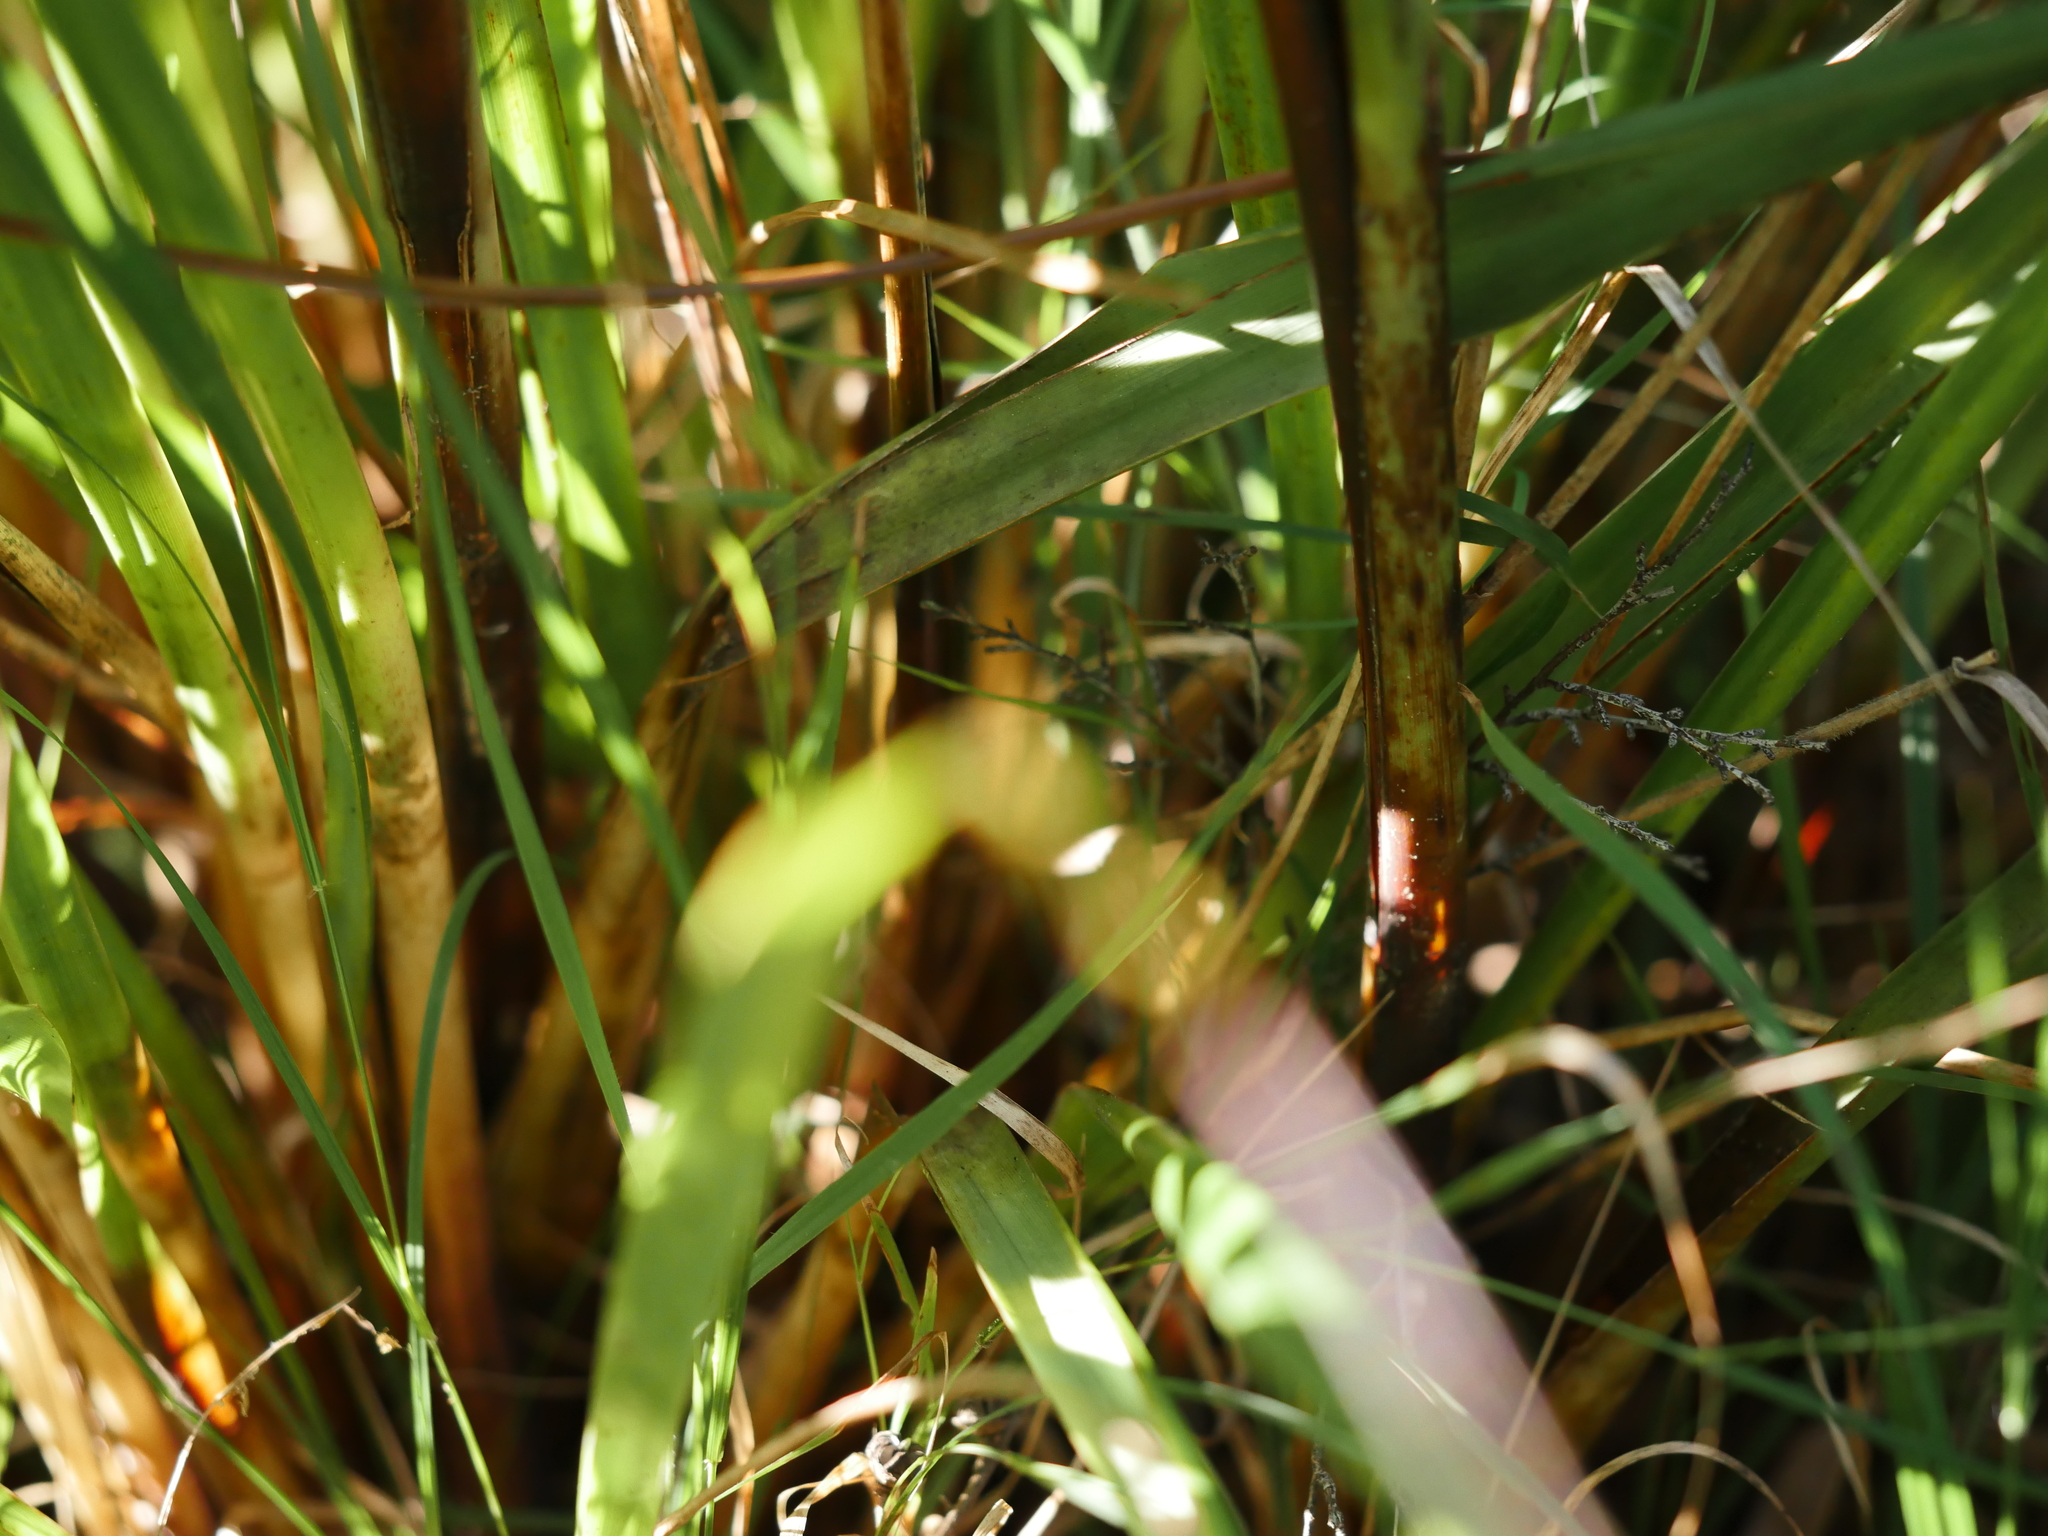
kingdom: Plantae
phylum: Tracheophyta
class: Liliopsida
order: Poales
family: Cyperaceae
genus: Gahnia
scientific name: Gahnia setifolia
